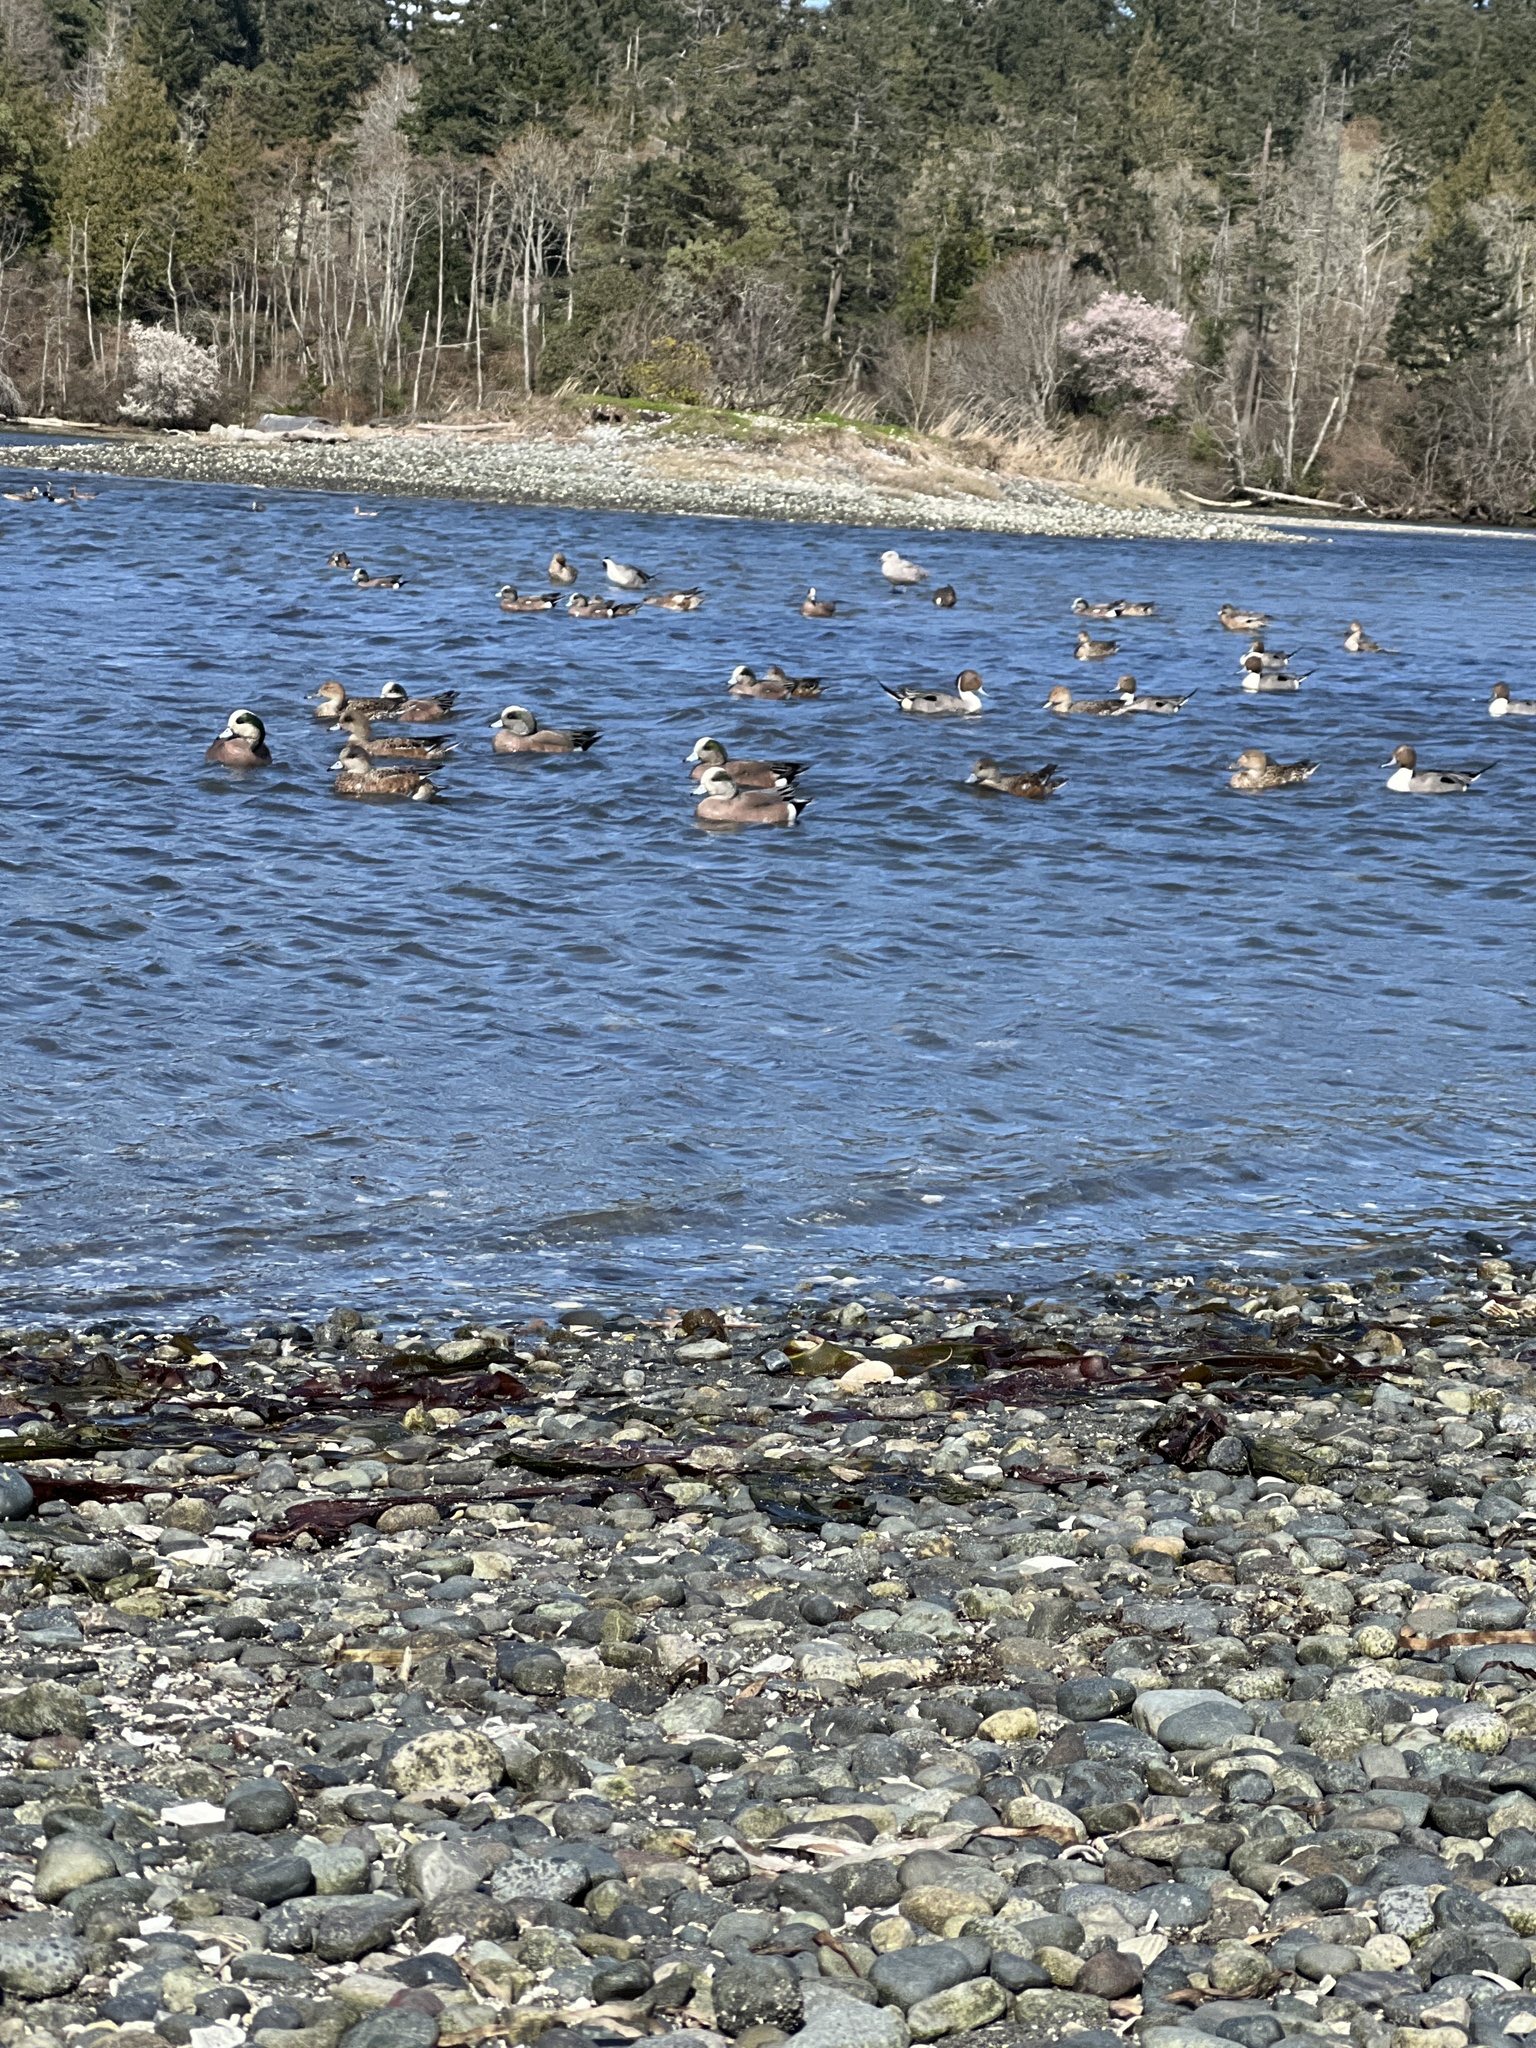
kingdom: Animalia
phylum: Chordata
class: Aves
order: Anseriformes
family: Anatidae
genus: Mareca
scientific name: Mareca americana
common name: American wigeon
